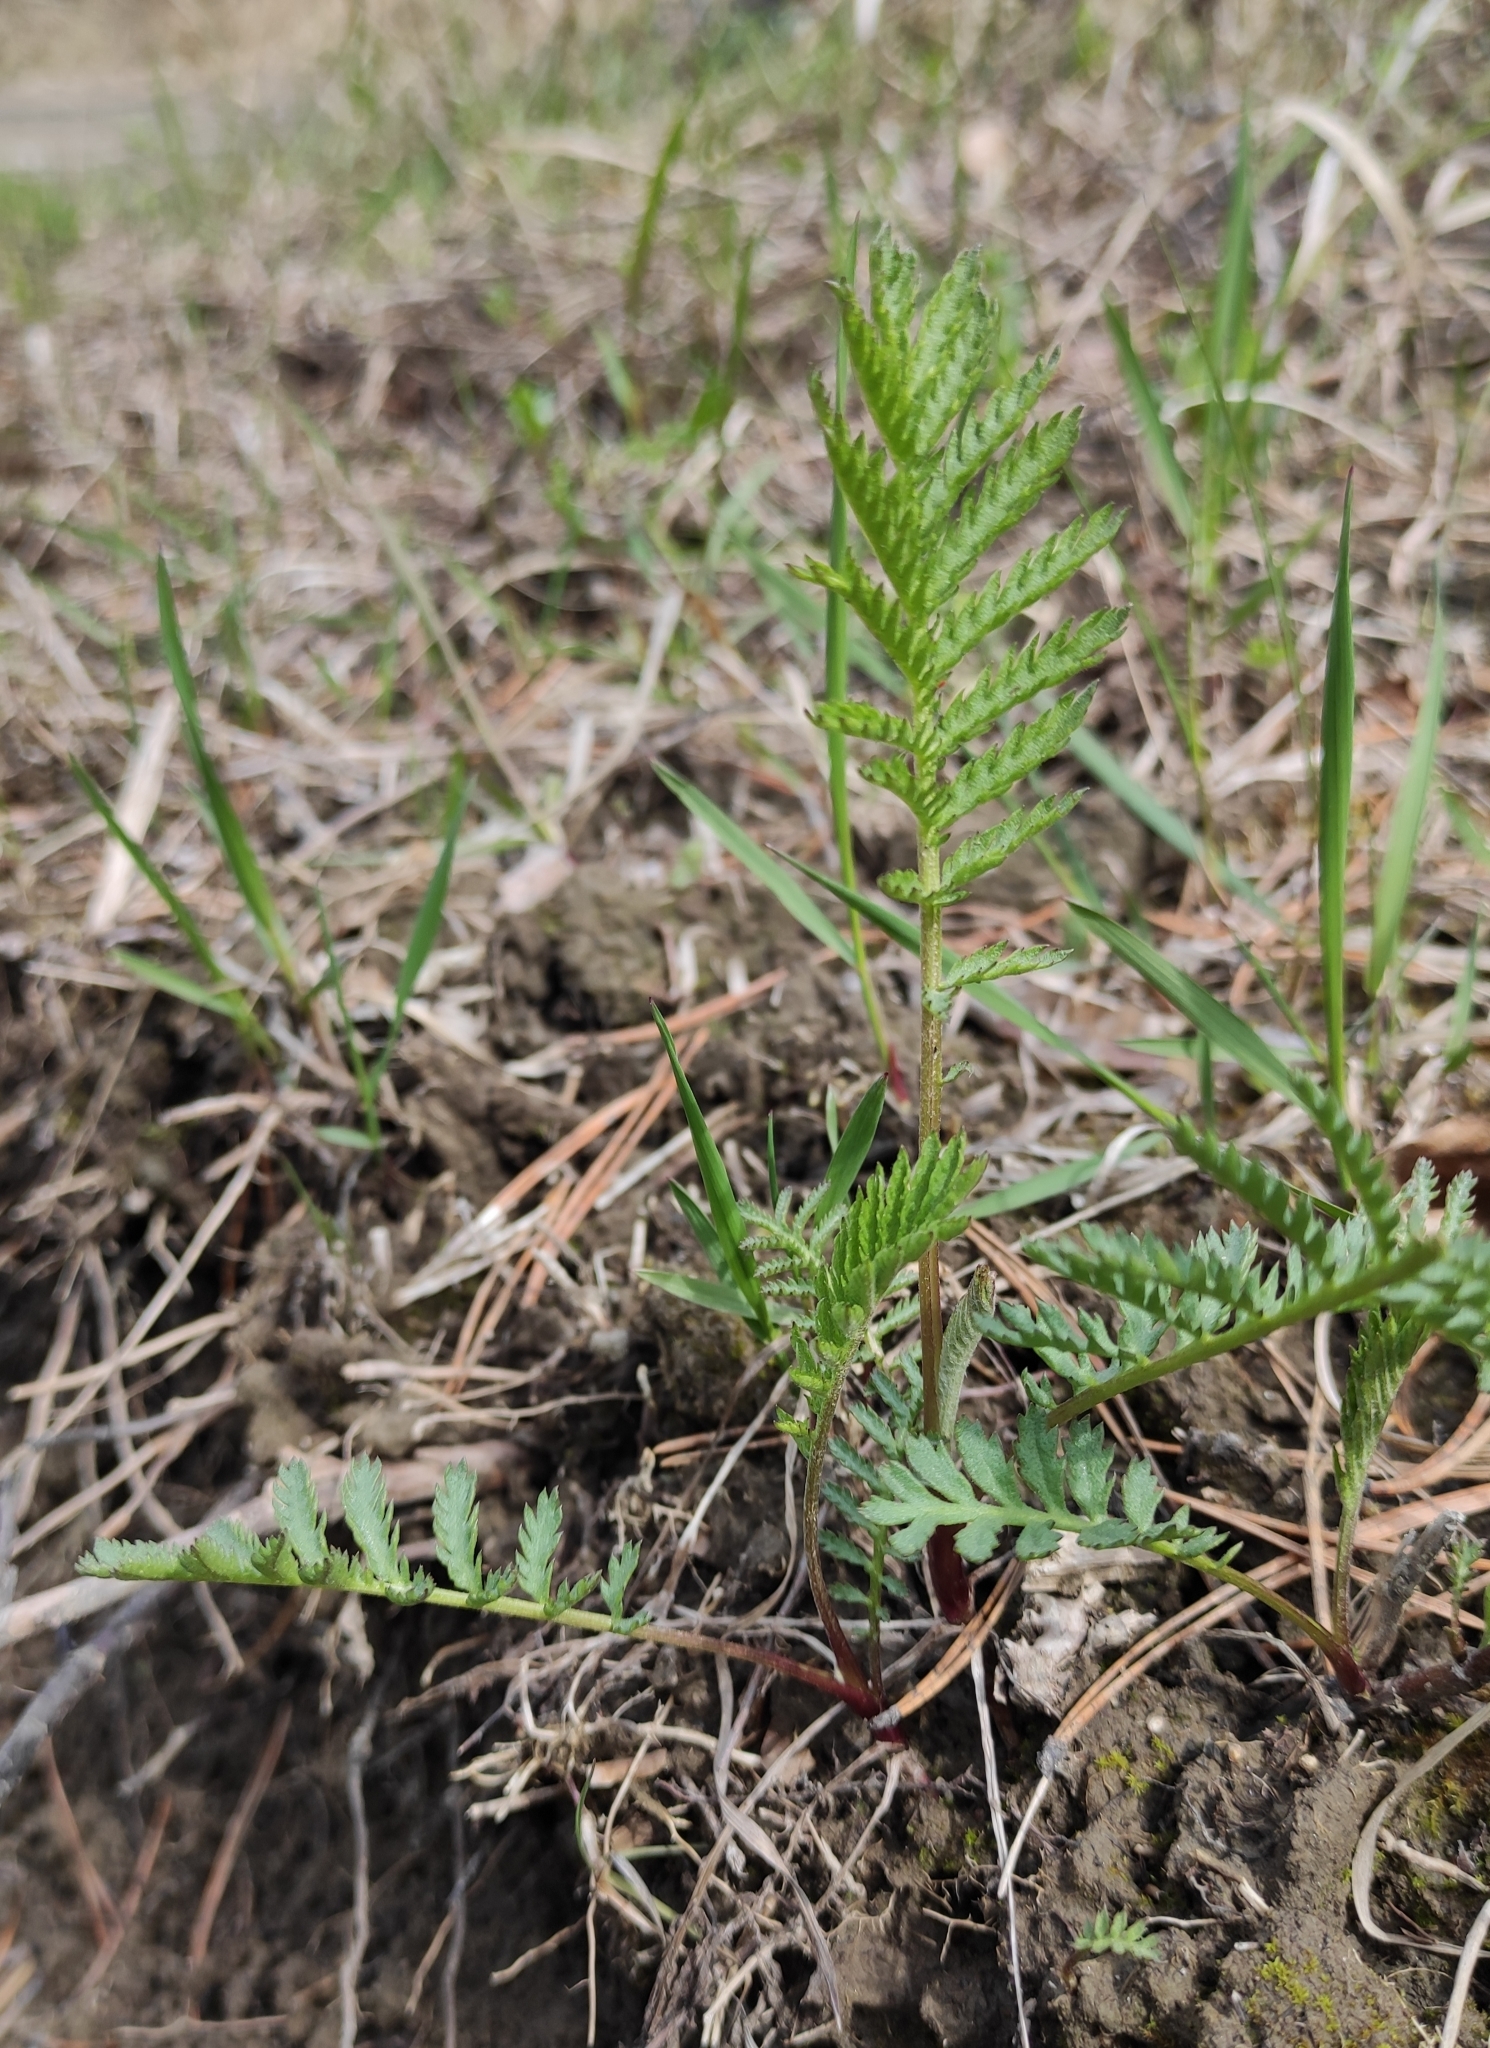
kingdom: Plantae
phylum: Tracheophyta
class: Magnoliopsida
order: Asterales
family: Asteraceae
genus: Tanacetum
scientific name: Tanacetum vulgare
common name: Common tansy
